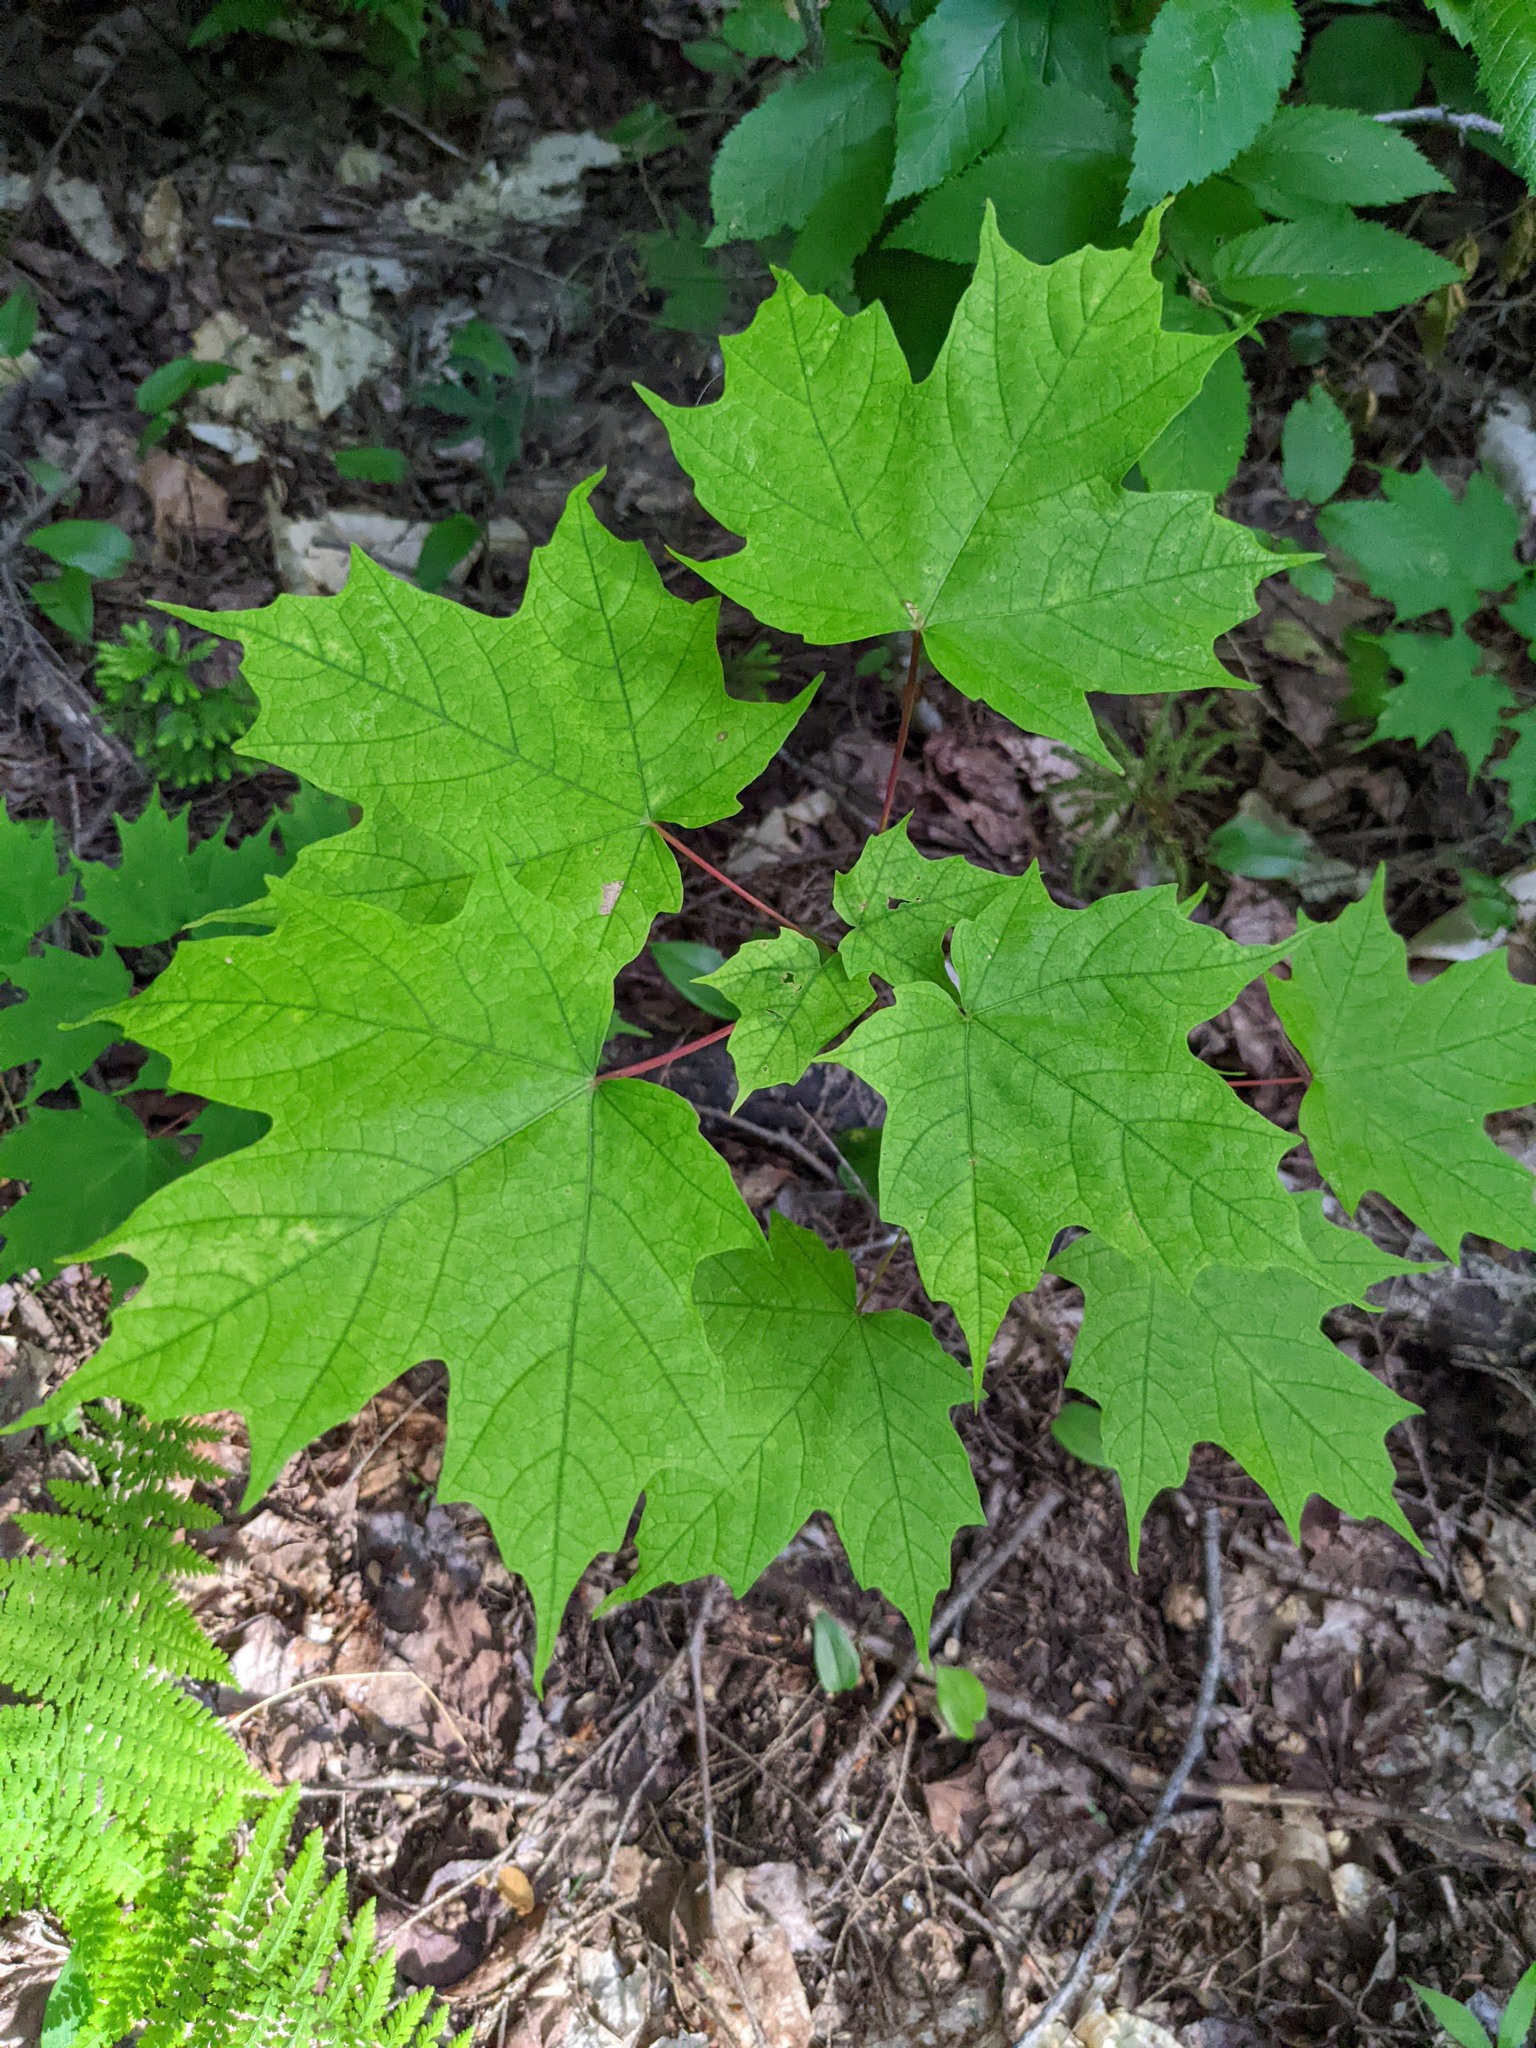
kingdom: Plantae
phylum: Tracheophyta
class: Magnoliopsida
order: Sapindales
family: Sapindaceae
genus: Acer
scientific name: Acer saccharum
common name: Sugar maple
